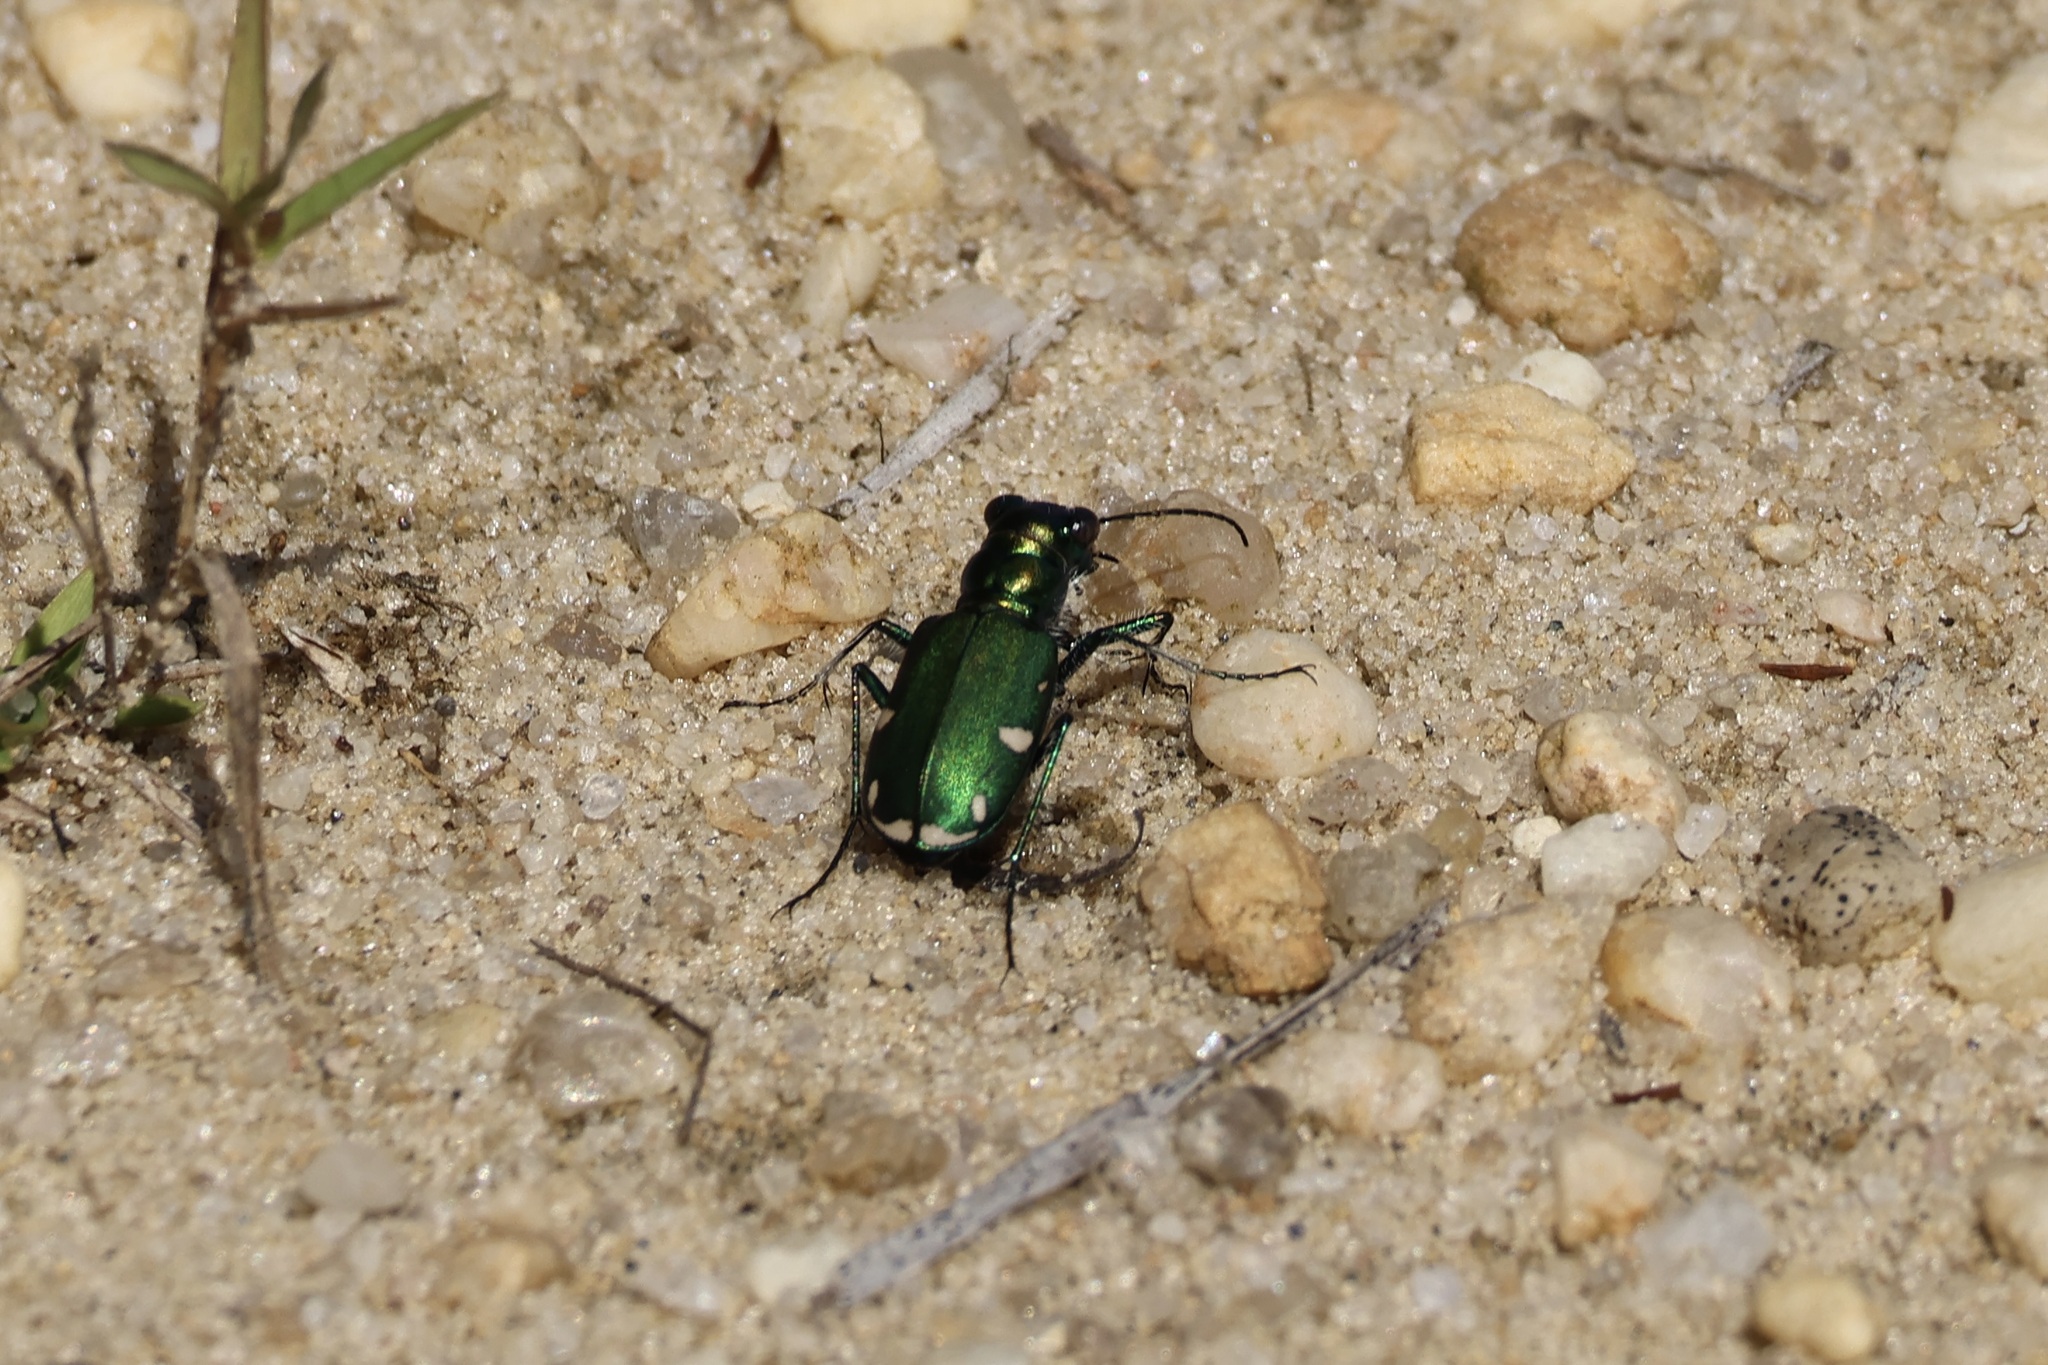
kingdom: Animalia
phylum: Arthropoda
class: Insecta
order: Coleoptera
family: Carabidae
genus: Cicindela
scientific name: Cicindela scutellaris
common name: Festive tiger beetle
